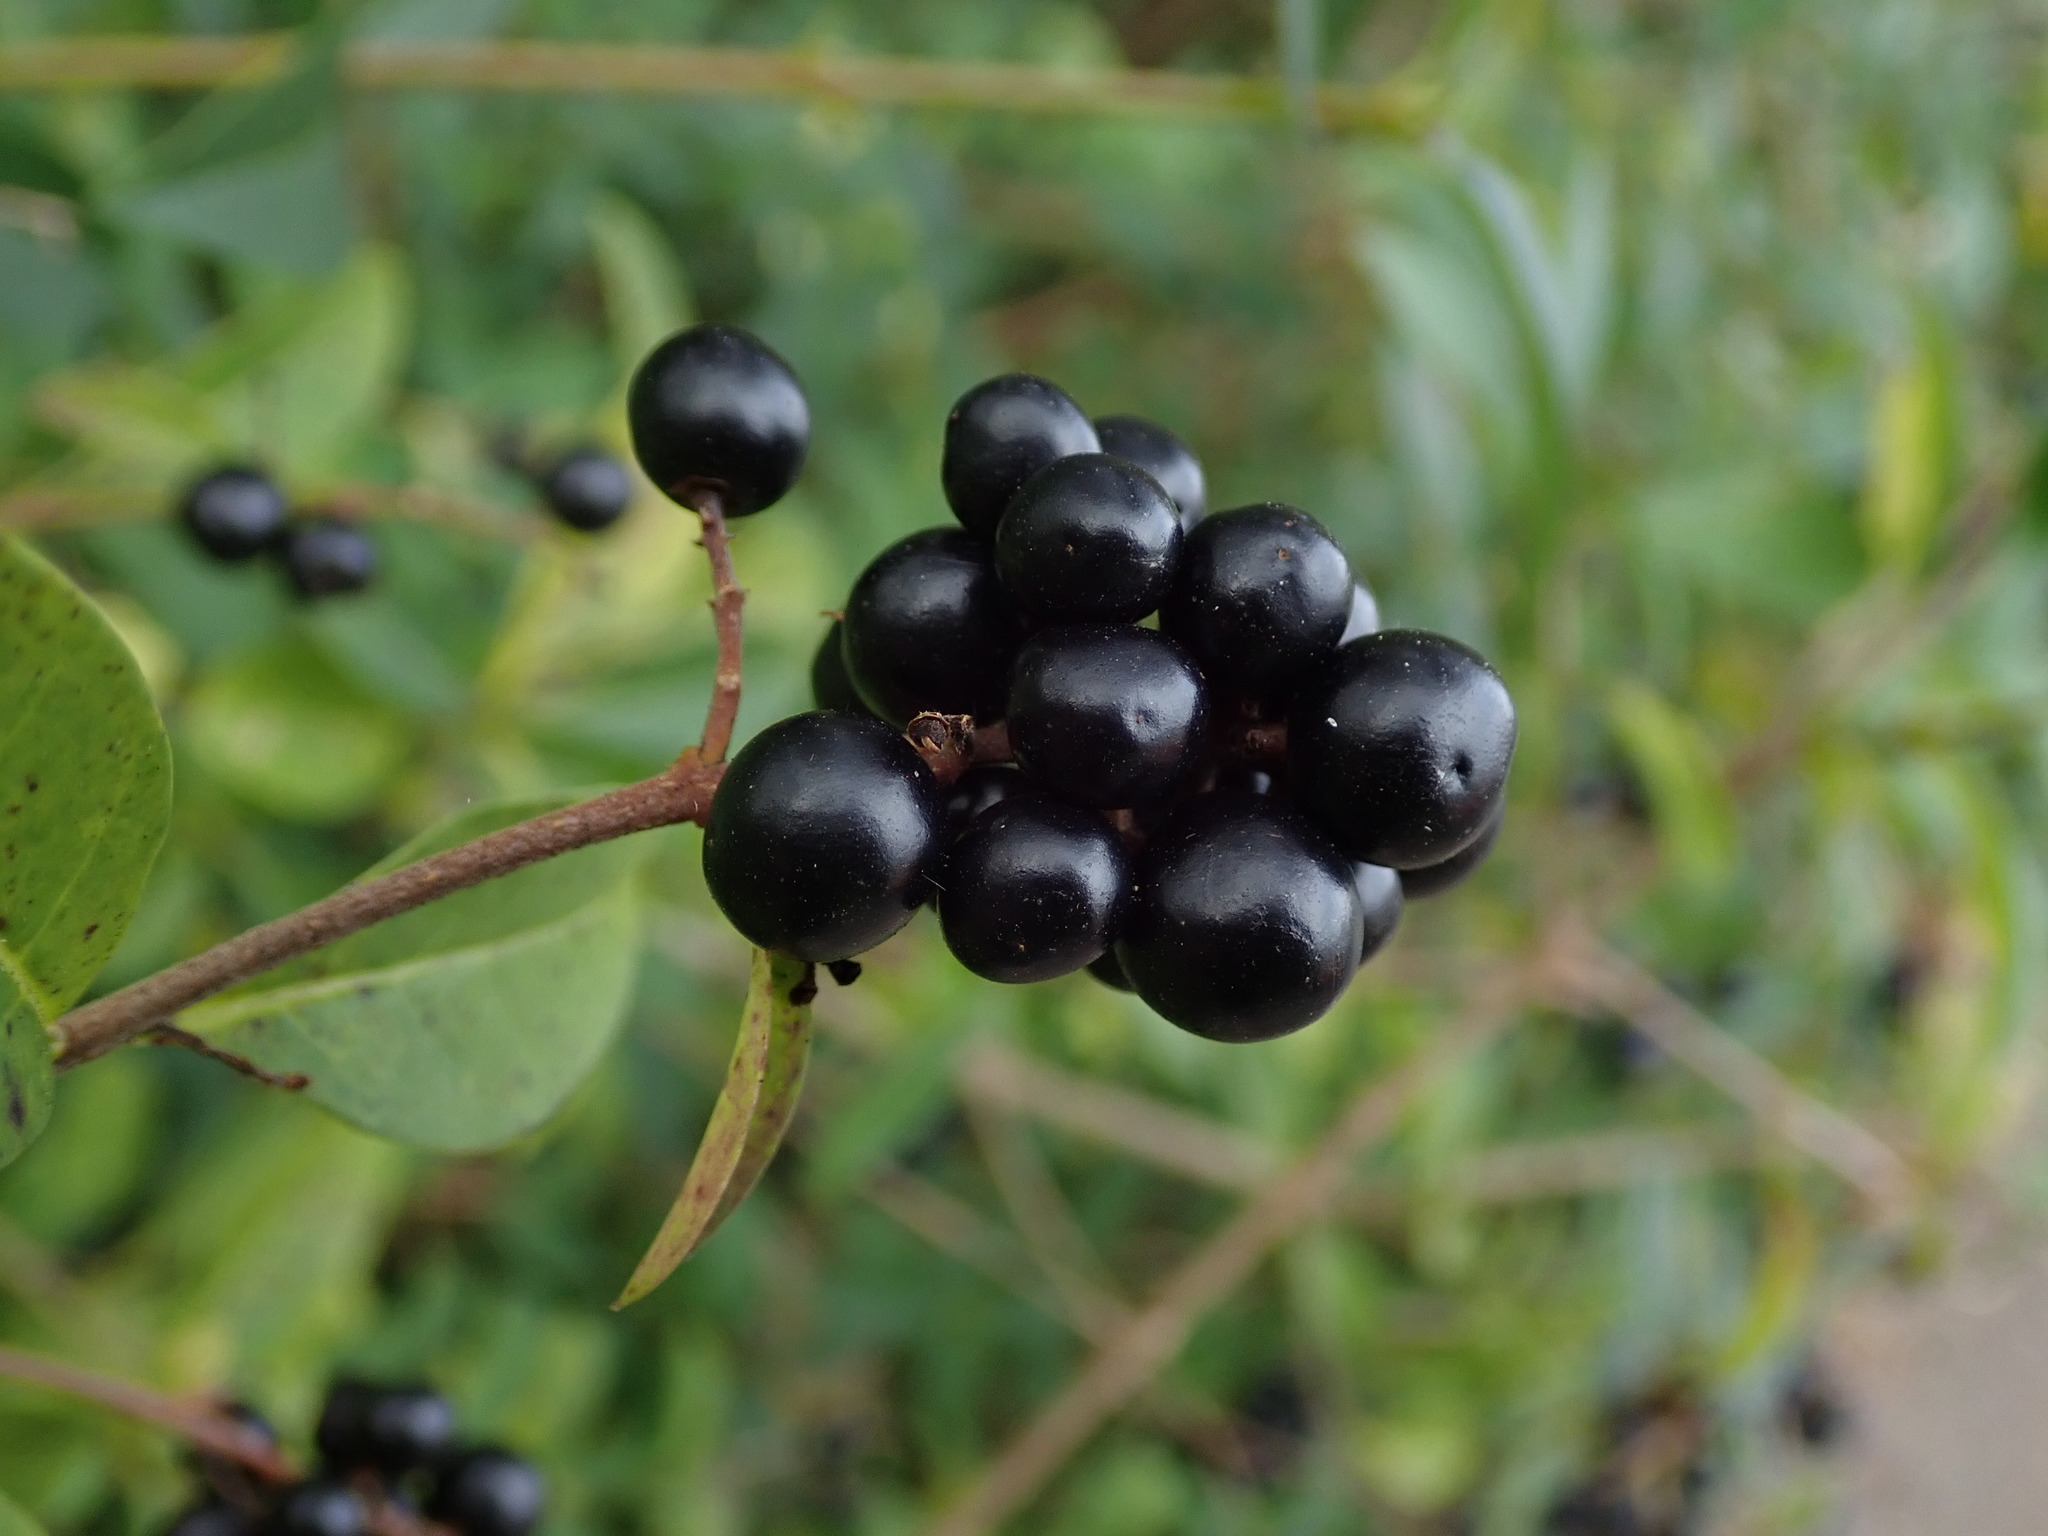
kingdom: Plantae
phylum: Tracheophyta
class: Magnoliopsida
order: Lamiales
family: Oleaceae
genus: Ligustrum
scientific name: Ligustrum vulgare
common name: Wild privet
